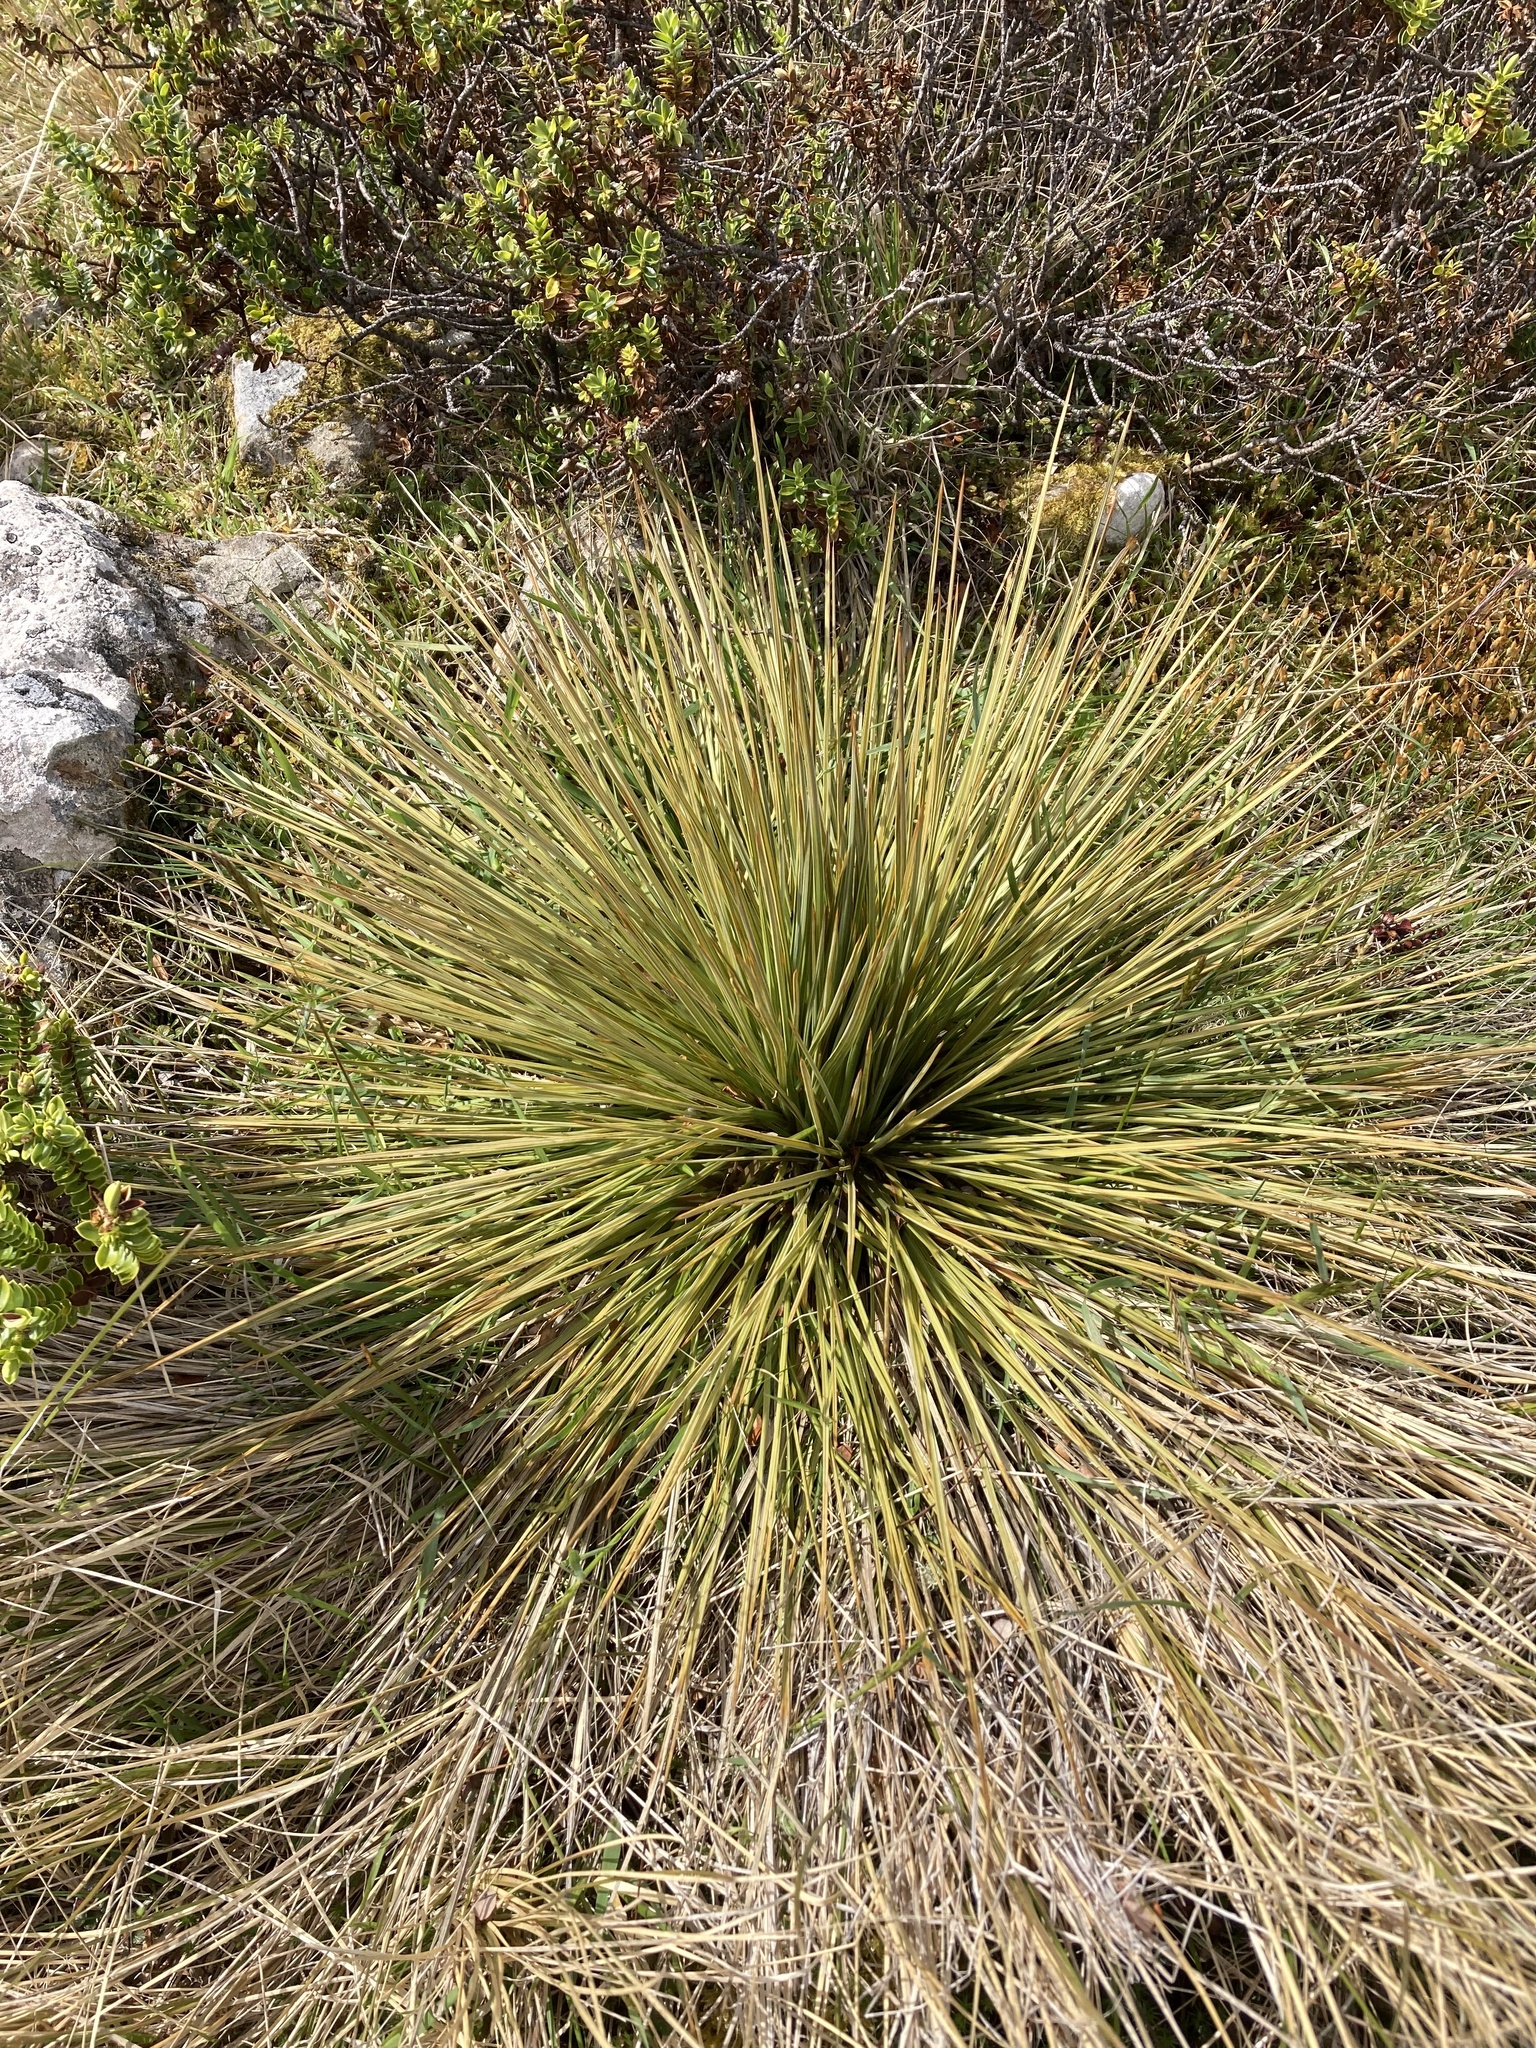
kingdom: Plantae
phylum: Tracheophyta
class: Magnoliopsida
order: Apiales
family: Apiaceae
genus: Aciphylla
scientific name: Aciphylla subflabellata
